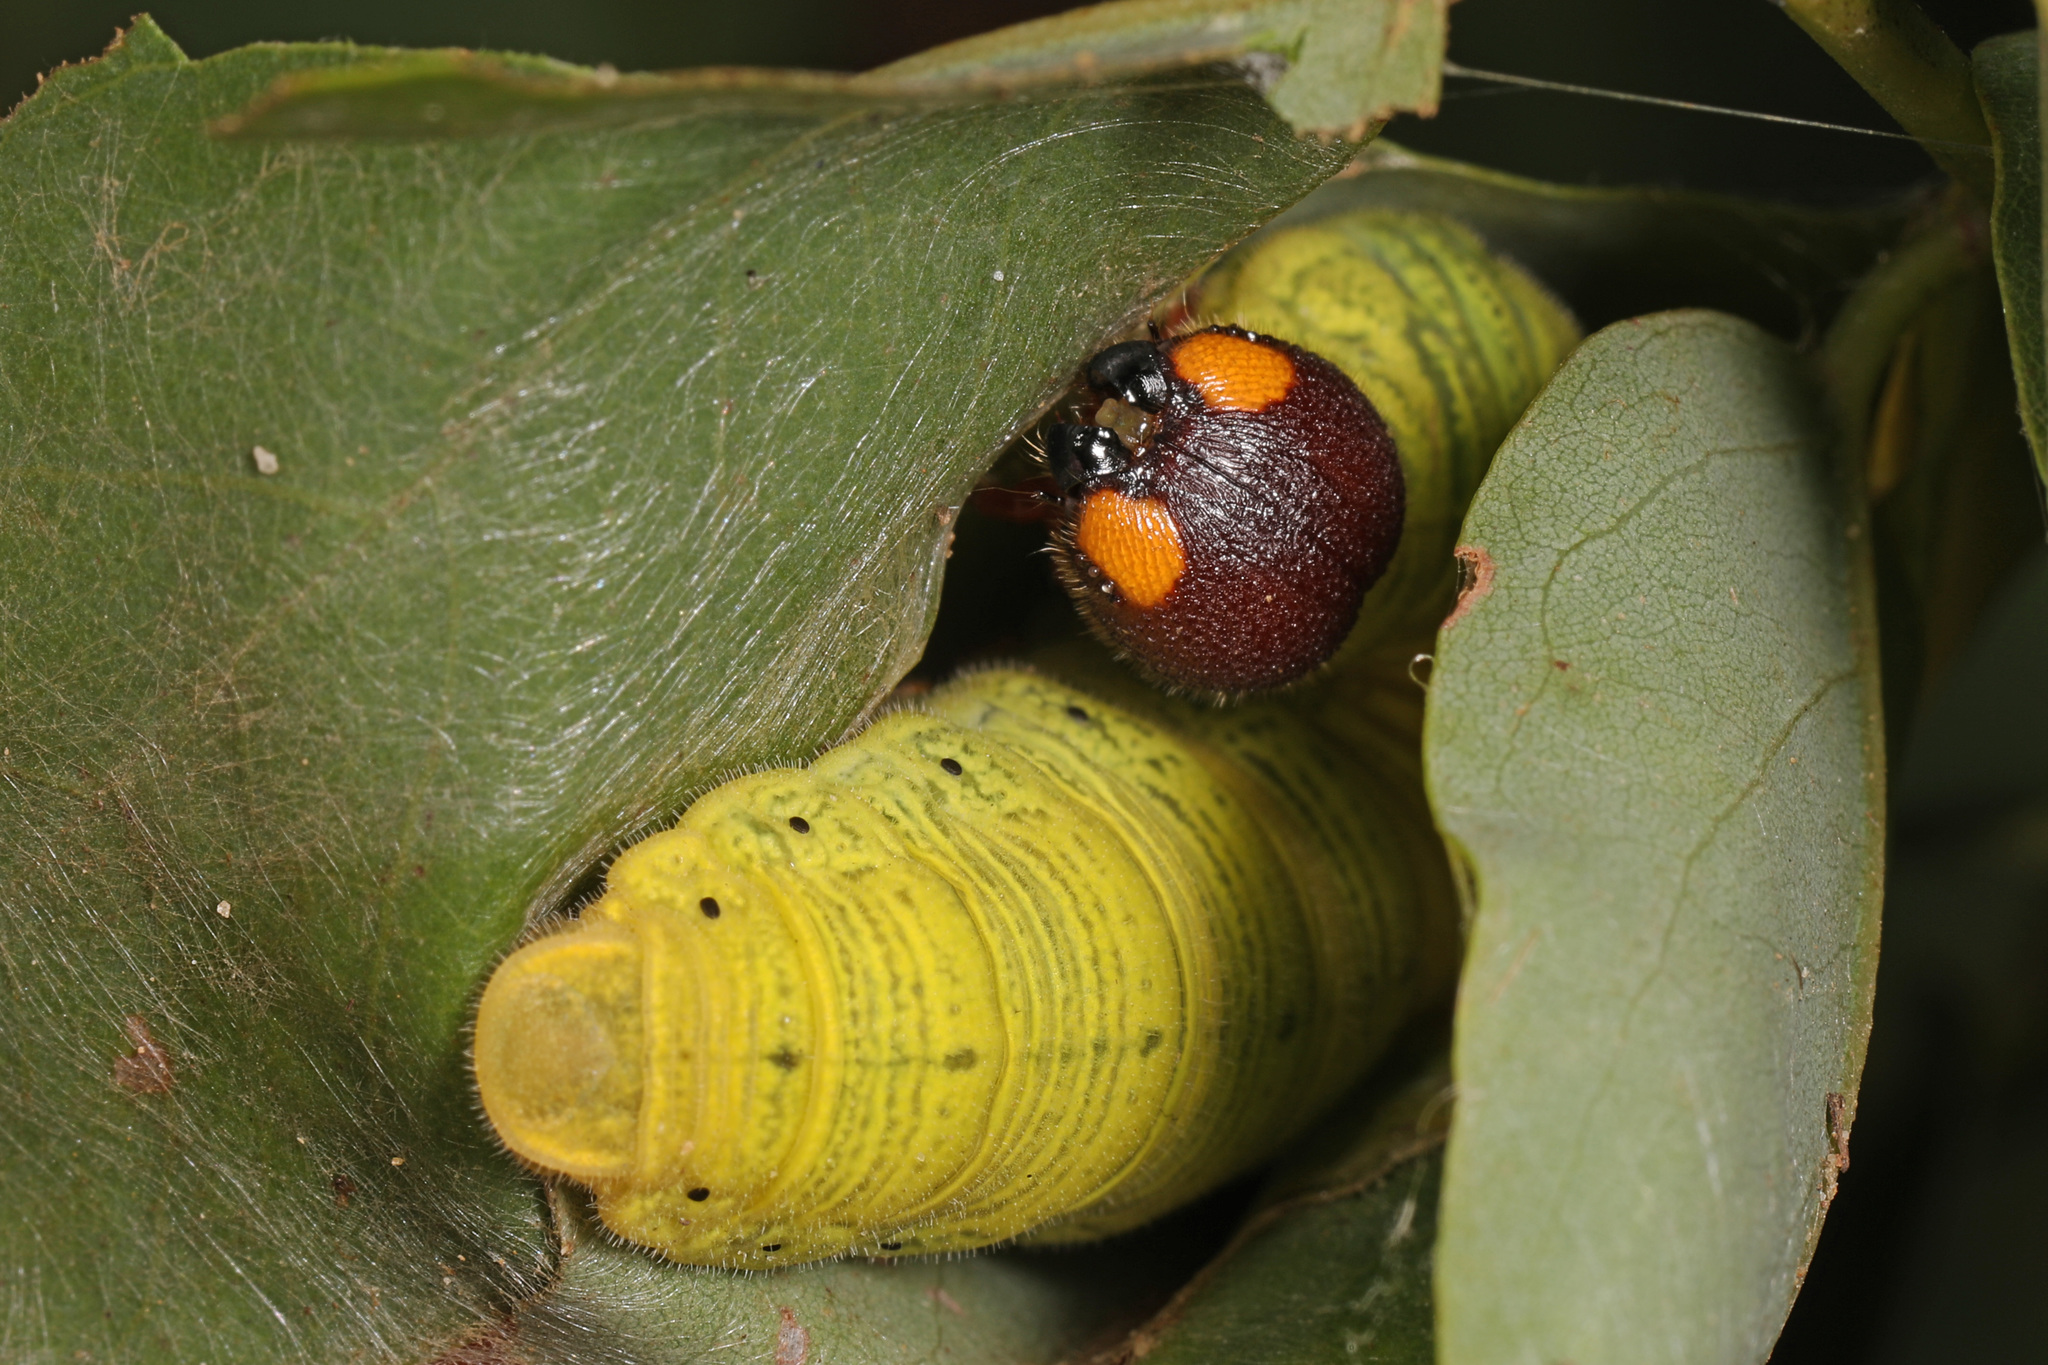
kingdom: Animalia
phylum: Arthropoda
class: Insecta
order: Lepidoptera
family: Hesperiidae
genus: Epargyreus
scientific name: Epargyreus clarus
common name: Silver-spotted skipper
